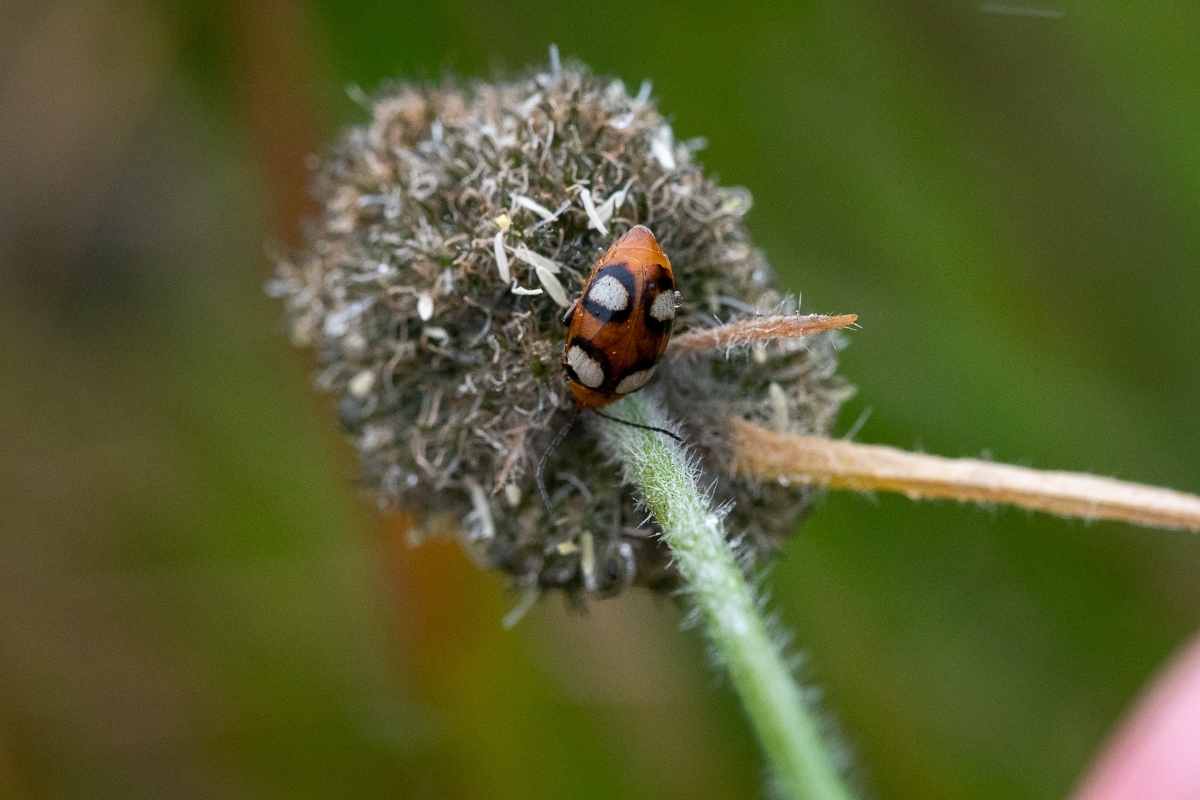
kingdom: Animalia
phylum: Arthropoda
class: Insecta
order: Coleoptera
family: Chrysomelidae
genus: Monolepta
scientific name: Monolepta
